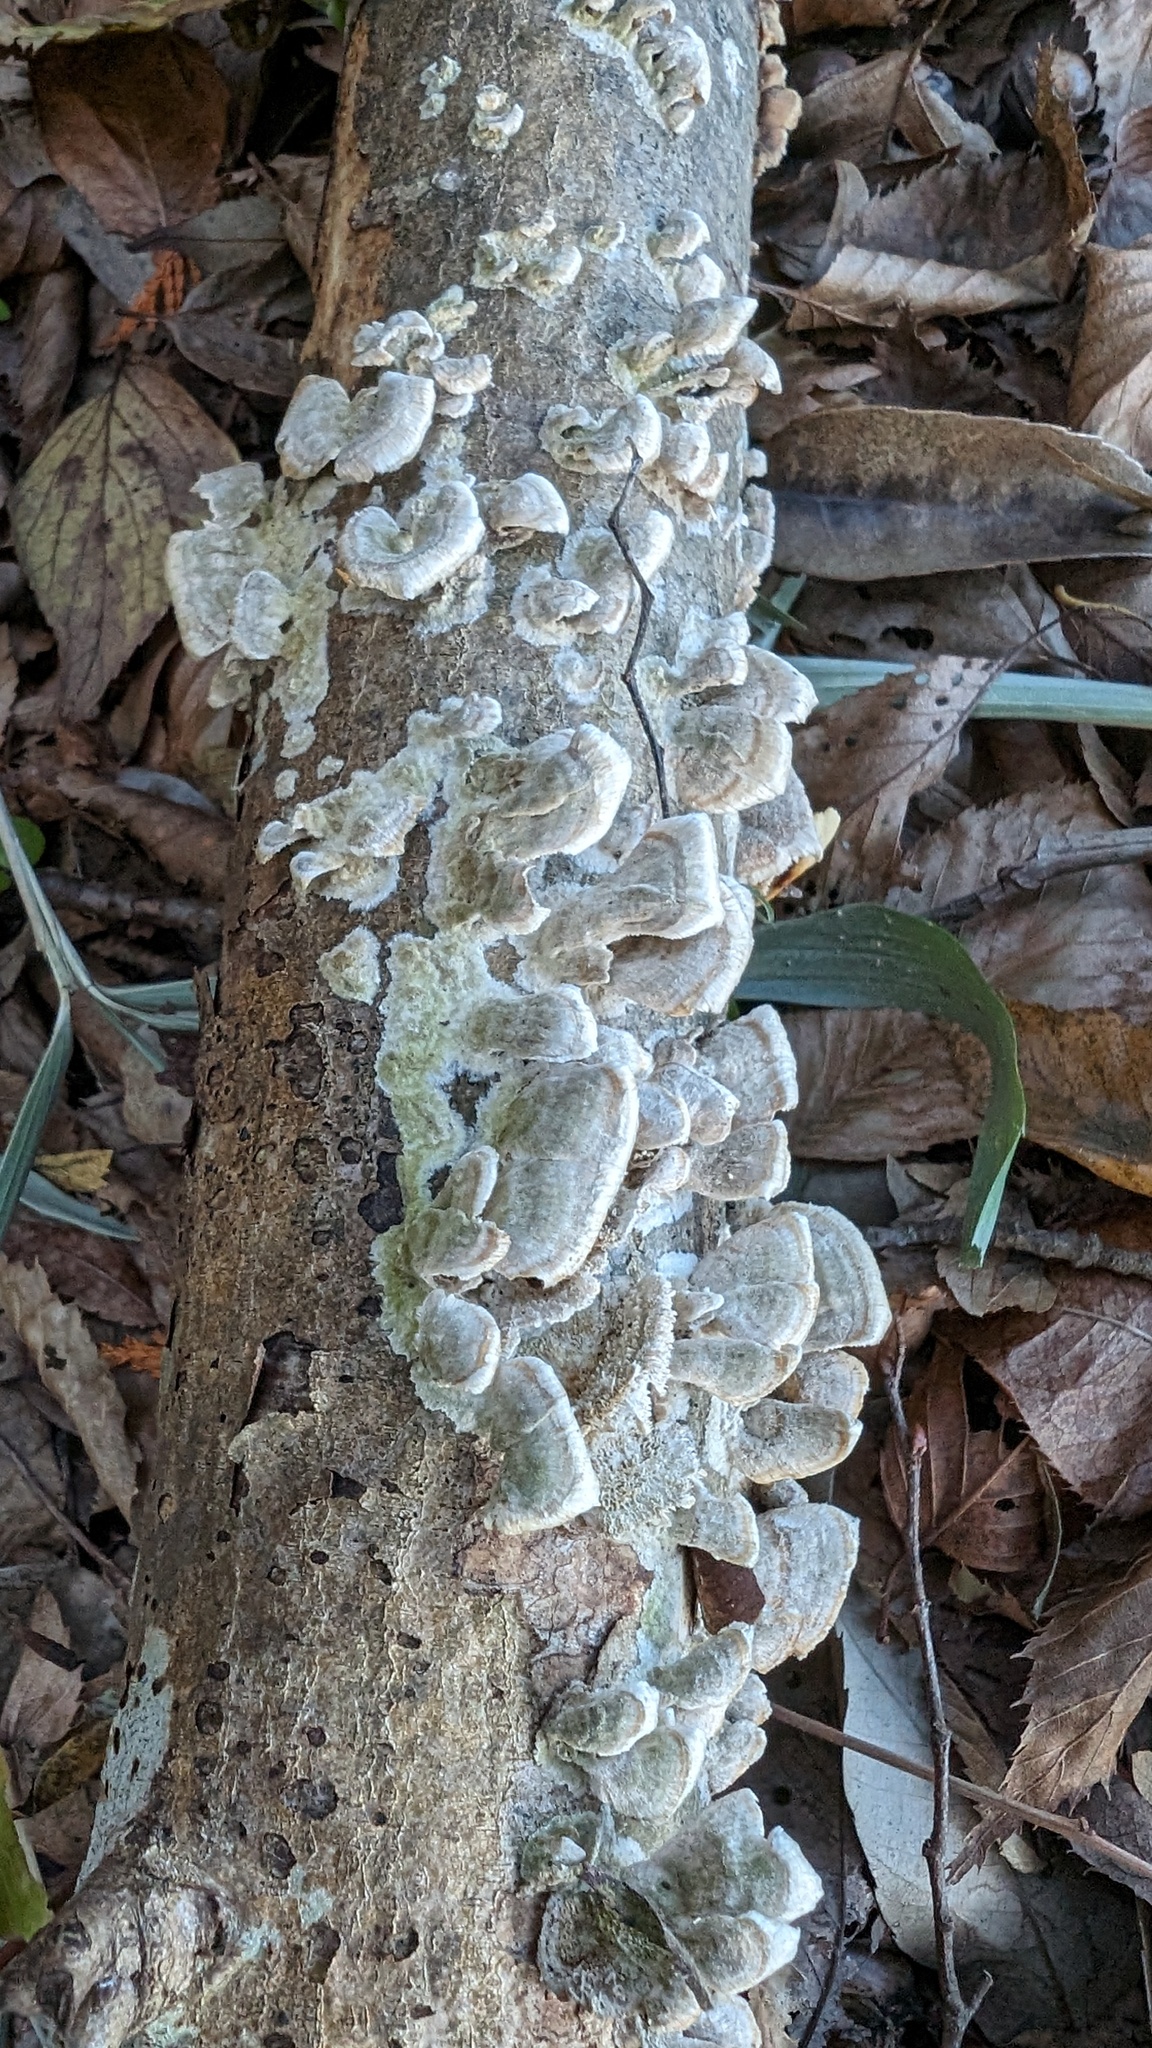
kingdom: Fungi
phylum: Basidiomycota
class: Agaricomycetes
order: Hymenochaetales
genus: Trichaptum
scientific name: Trichaptum biforme
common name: Violet-toothed polypore
